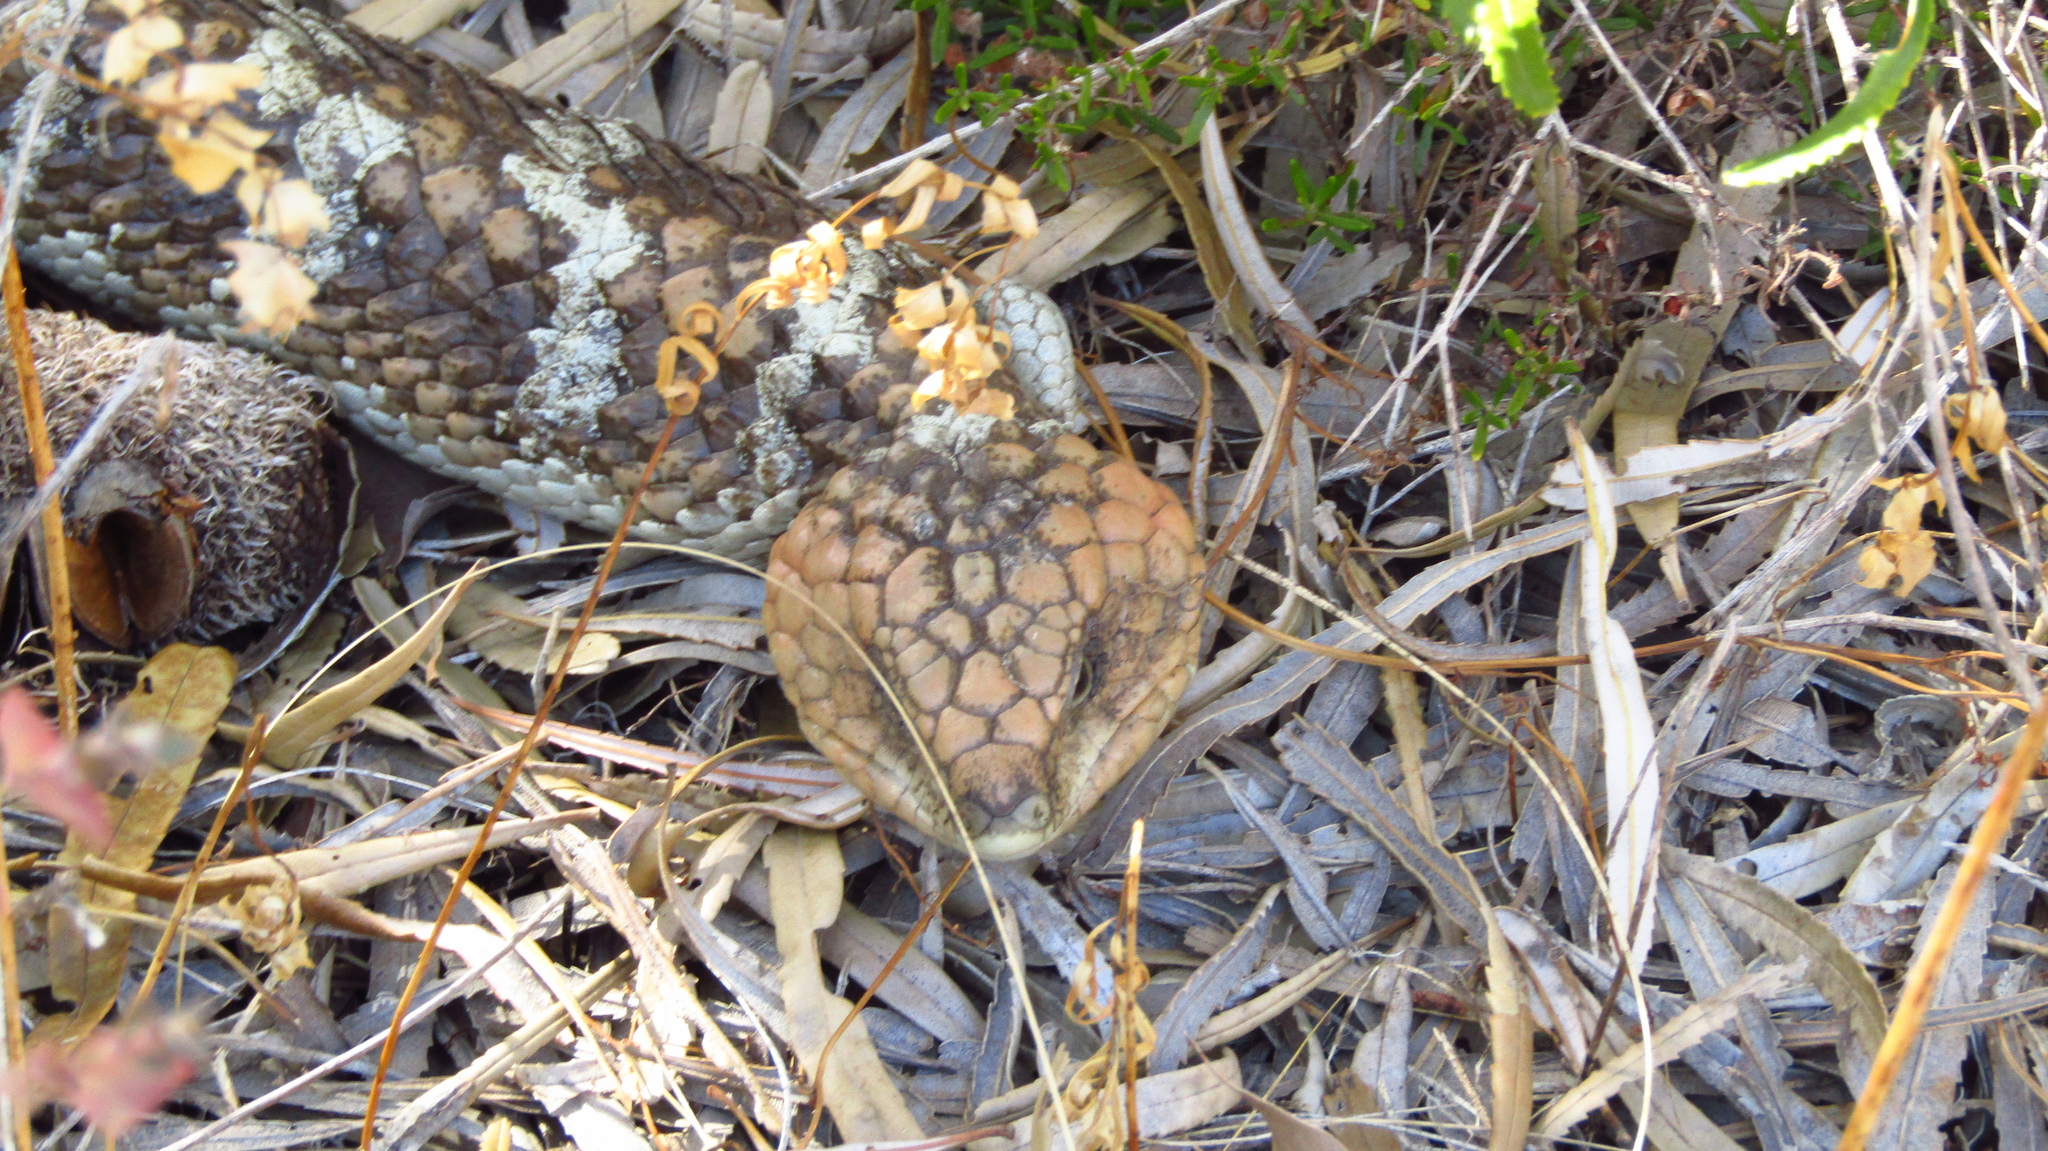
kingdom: Animalia
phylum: Chordata
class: Squamata
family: Scincidae
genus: Tiliqua
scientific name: Tiliqua rugosa
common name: Pinecone lizard
